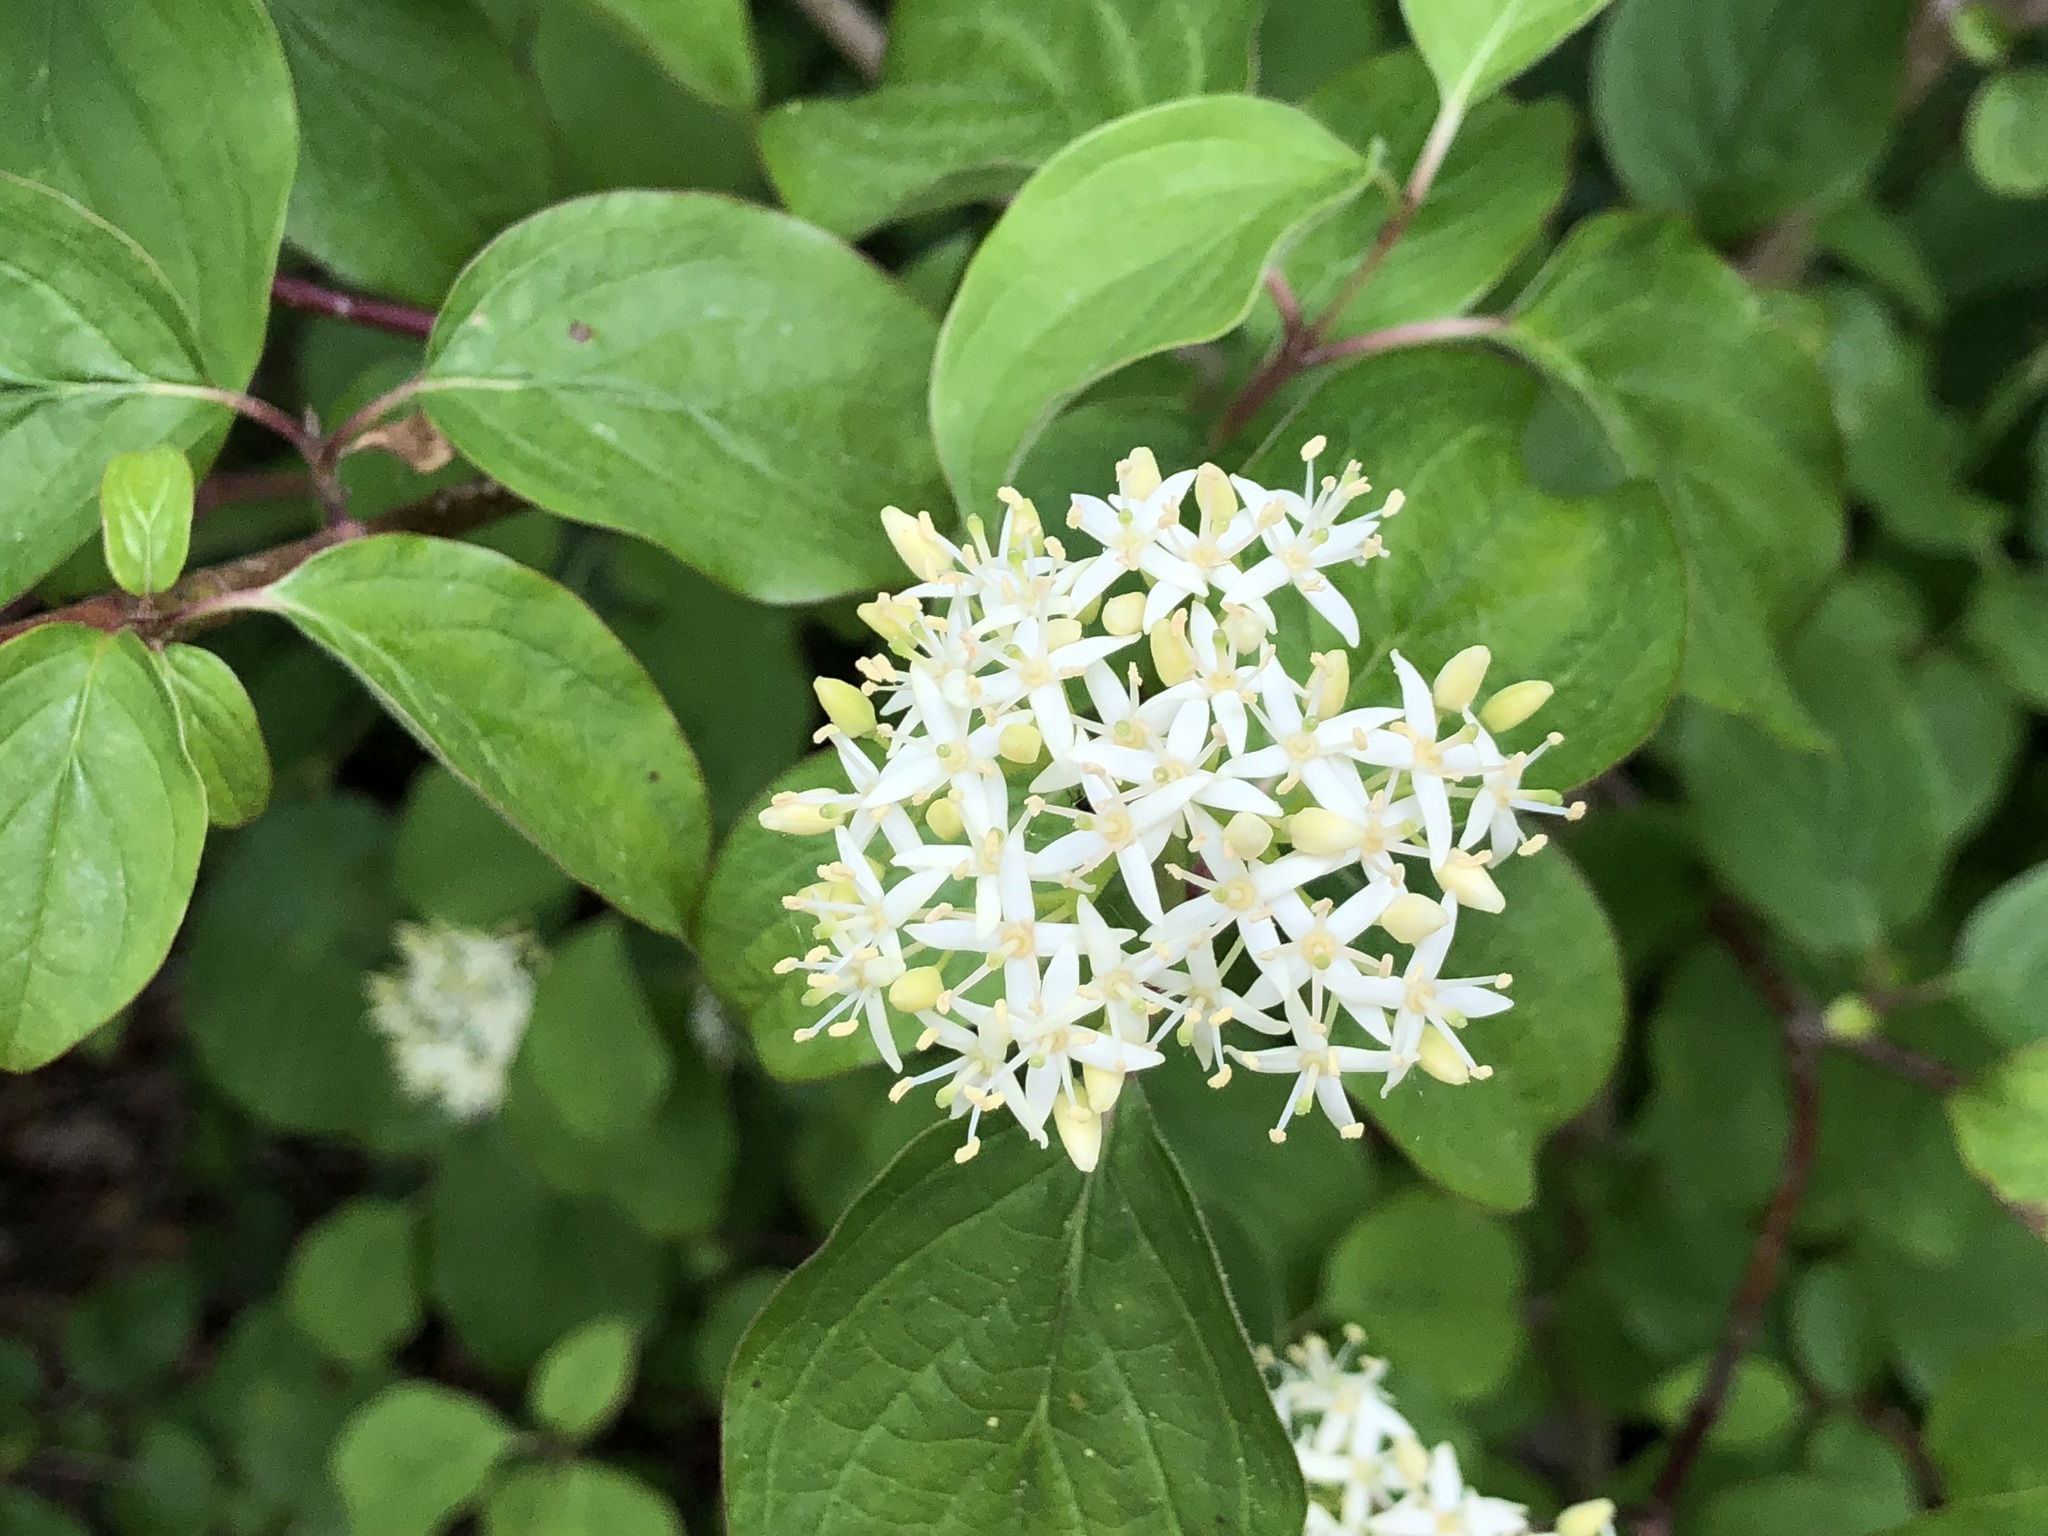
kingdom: Plantae
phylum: Tracheophyta
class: Magnoliopsida
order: Cornales
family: Cornaceae
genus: Cornus
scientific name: Cornus sanguinea
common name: Dogwood
